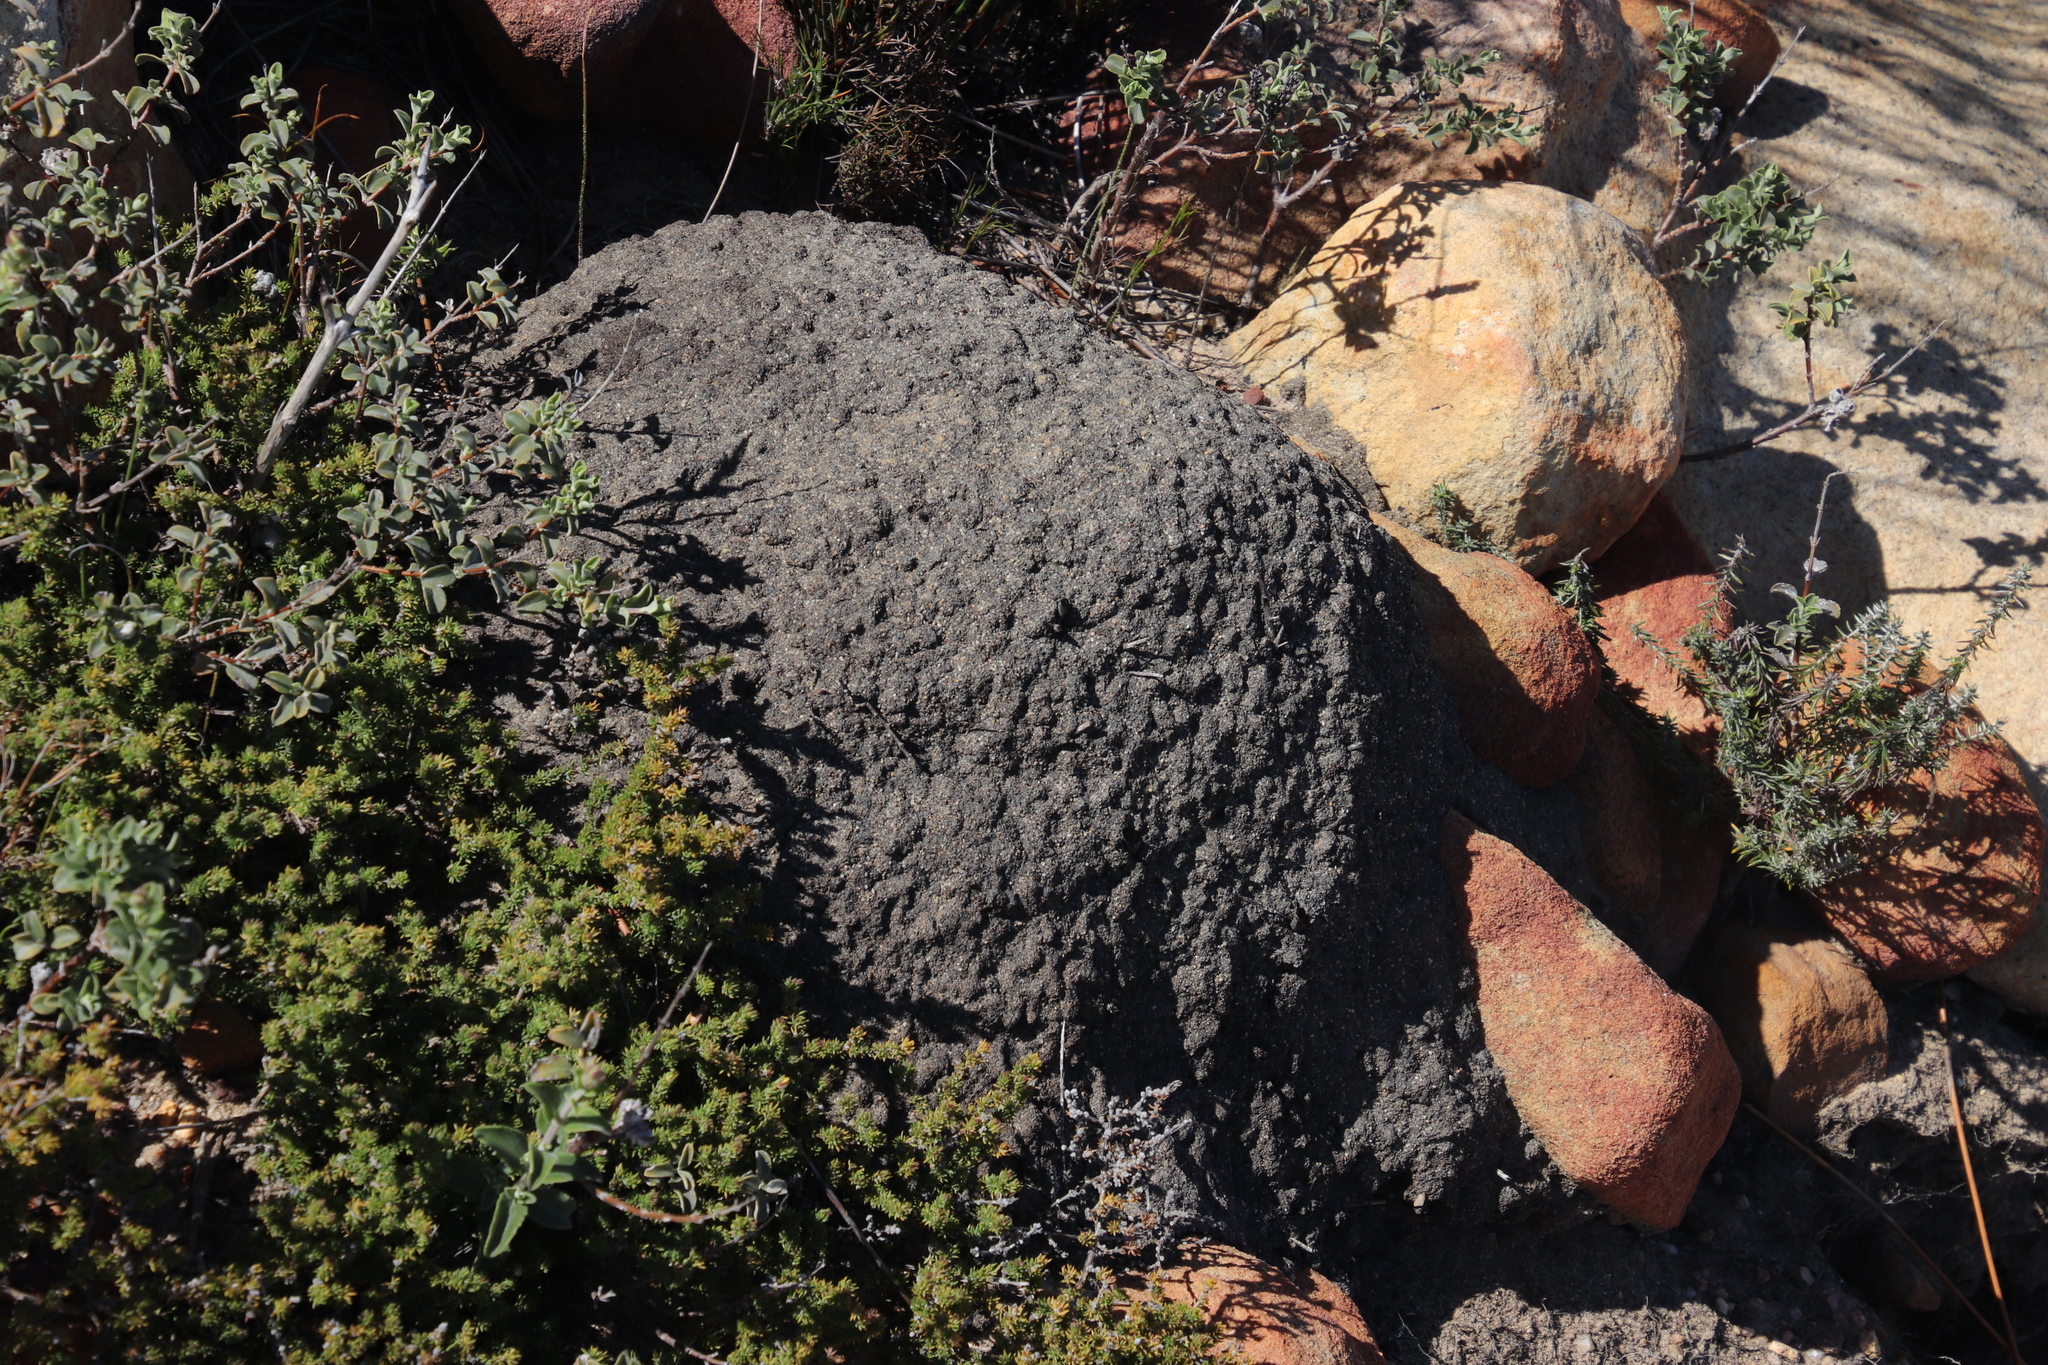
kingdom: Animalia
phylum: Arthropoda
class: Insecta
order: Blattodea
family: Termitidae
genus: Amitermes
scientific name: Amitermes hastatus
